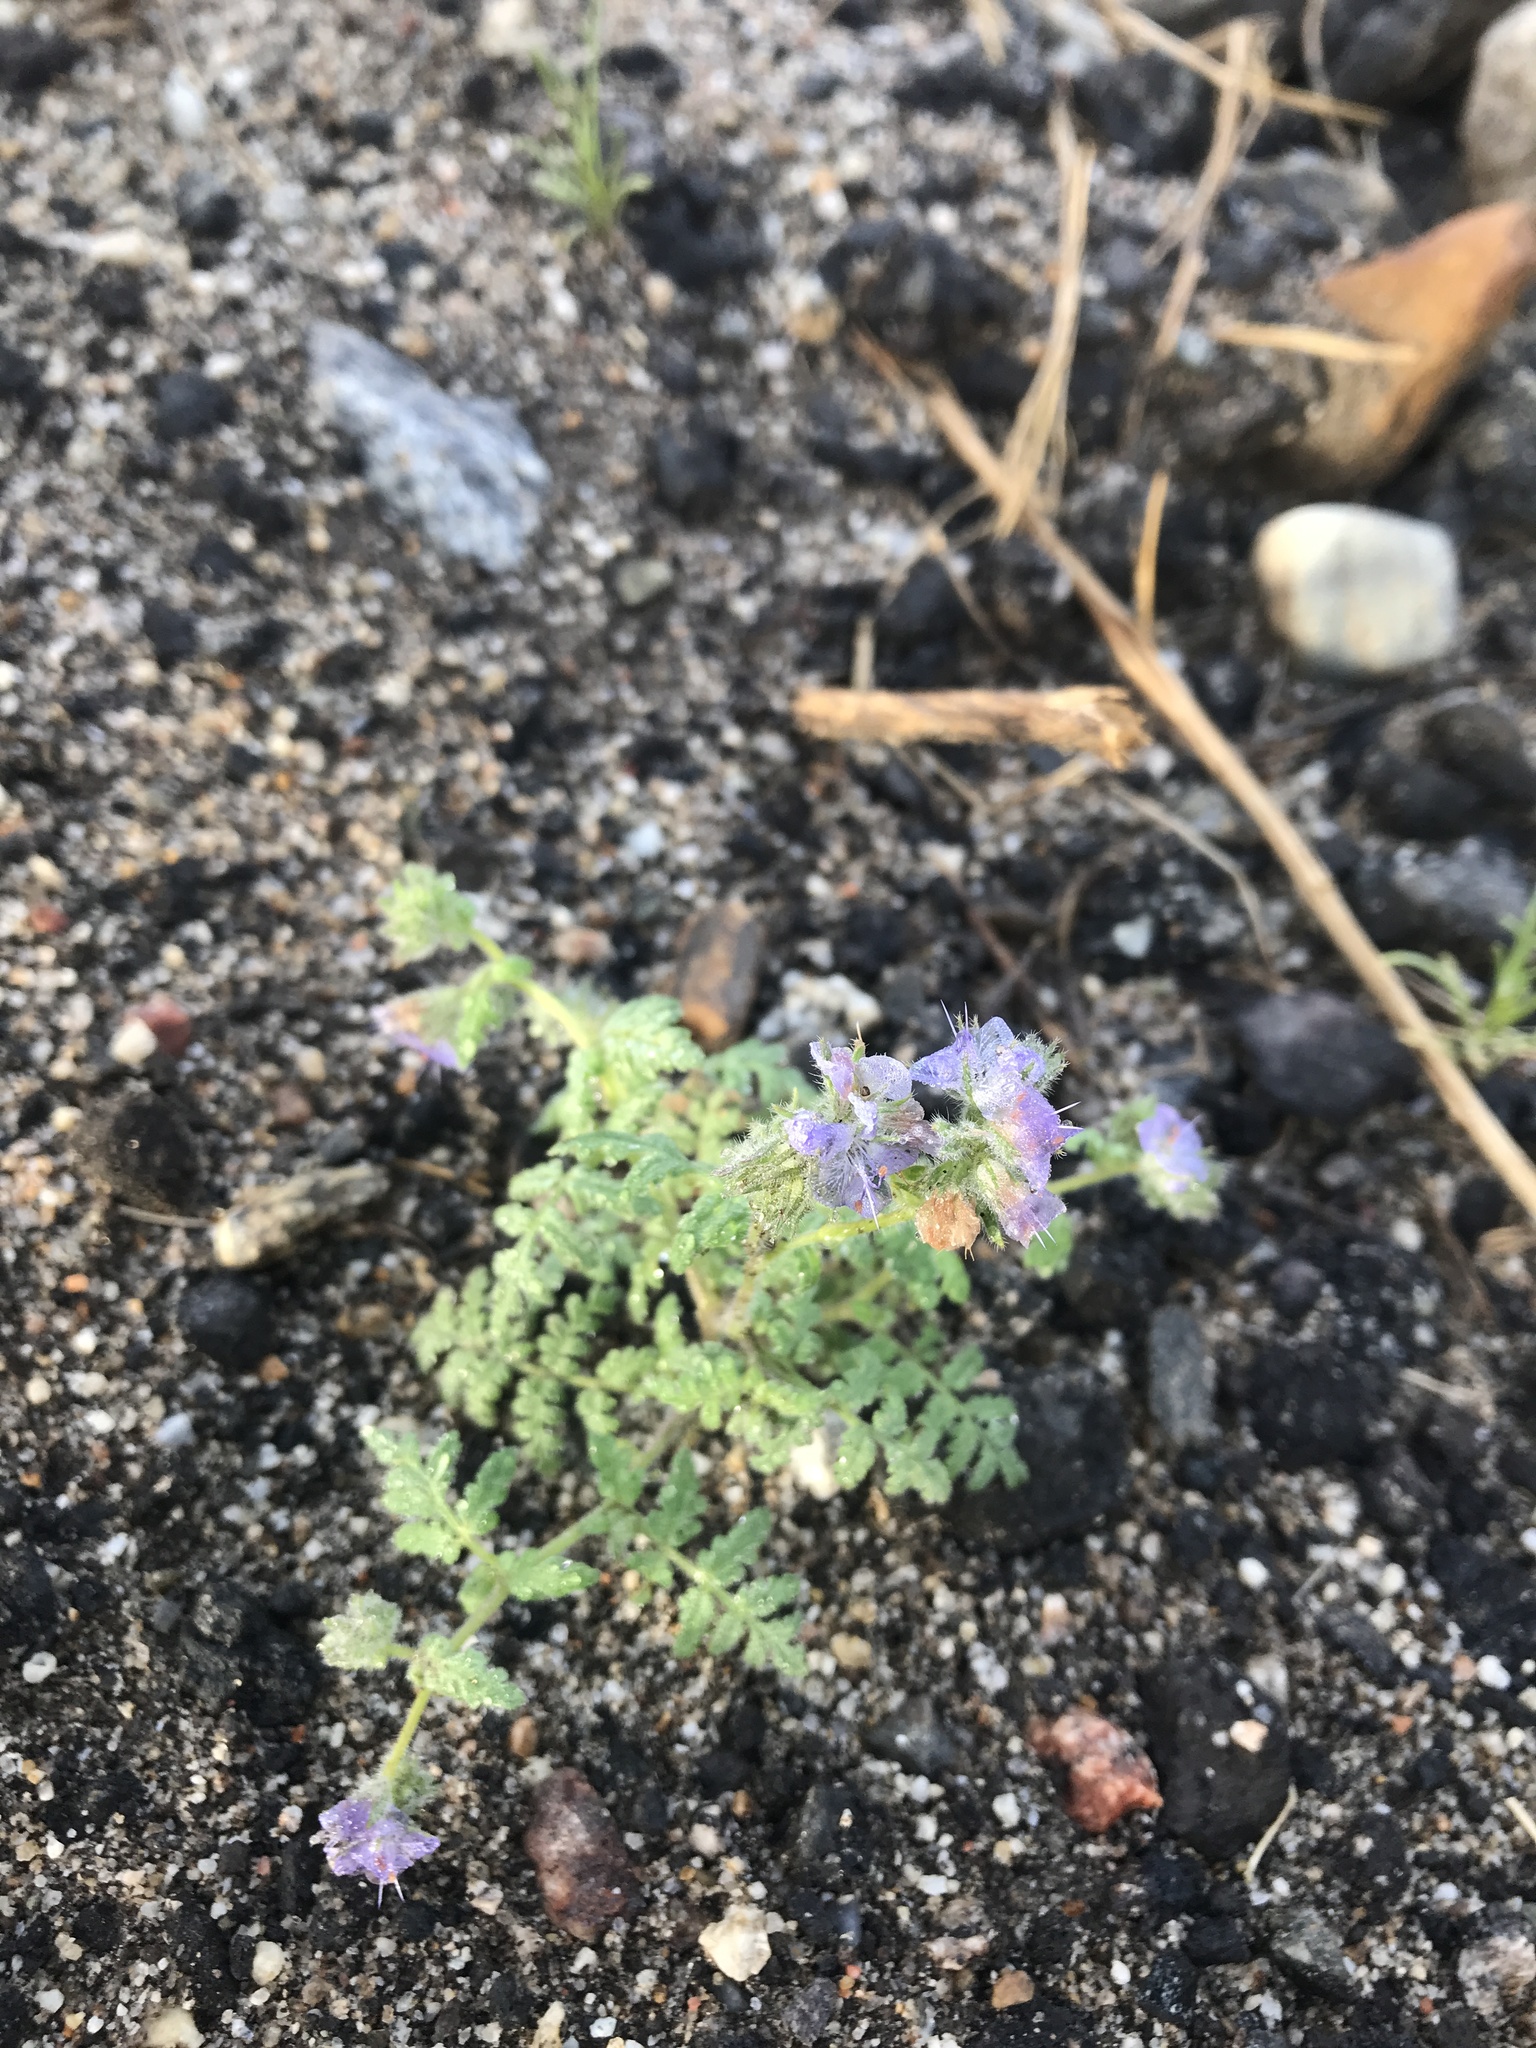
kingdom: Plantae
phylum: Tracheophyta
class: Magnoliopsida
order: Boraginales
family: Hydrophyllaceae
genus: Phacelia
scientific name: Phacelia distans
